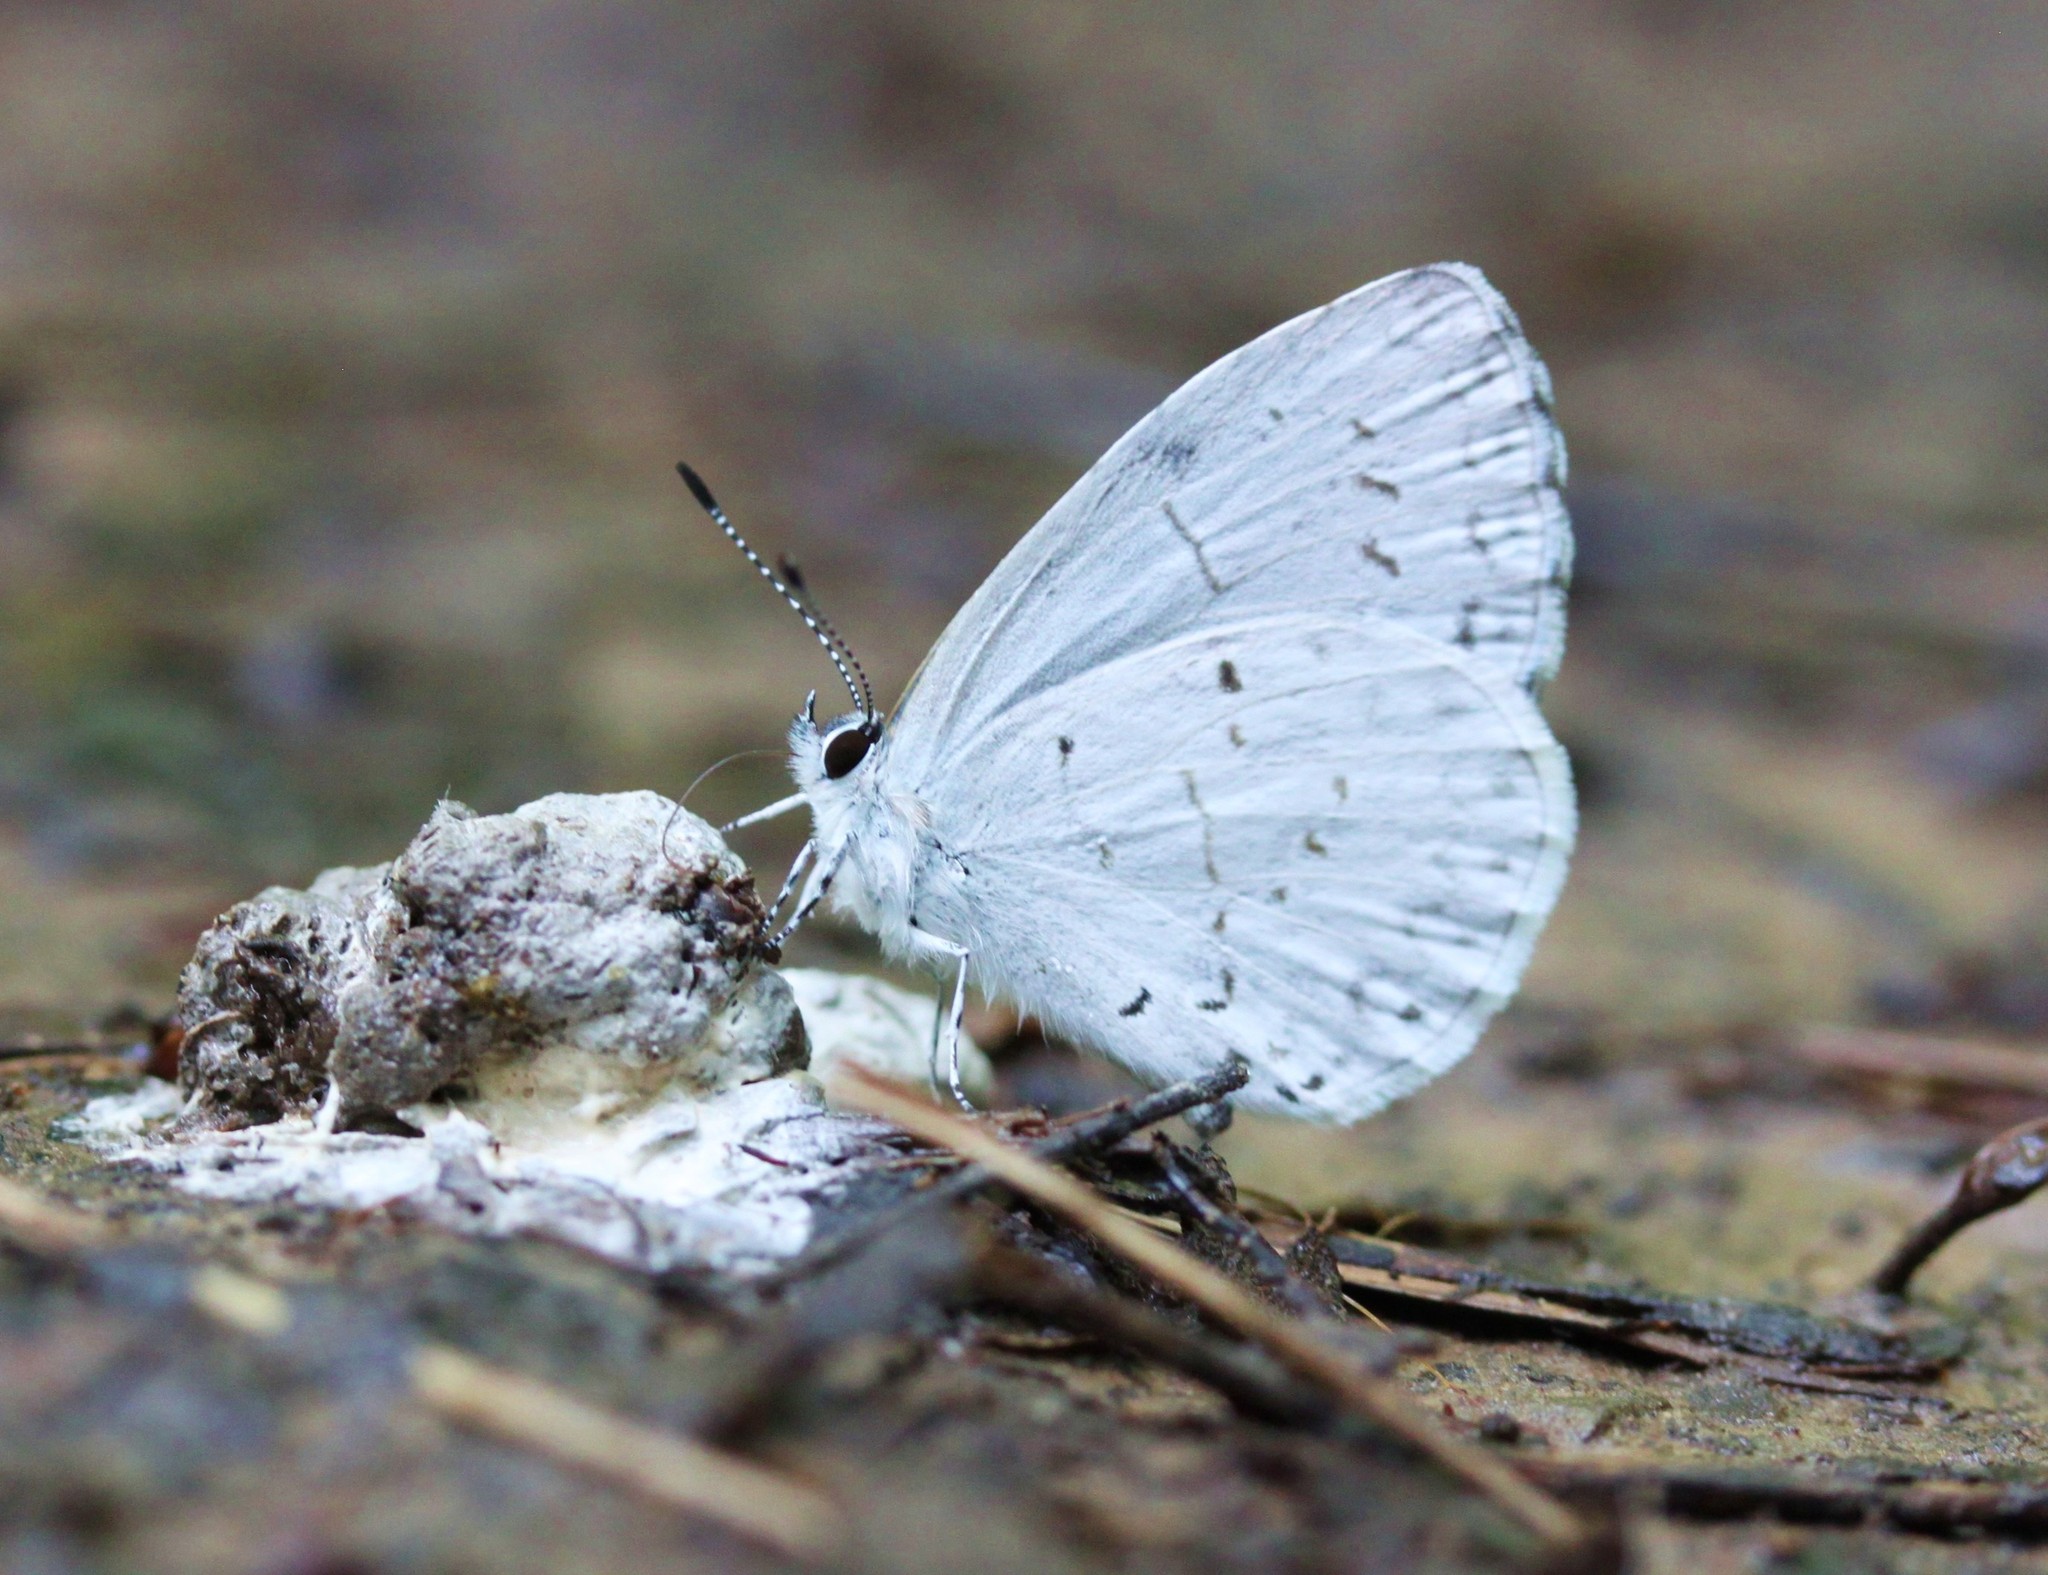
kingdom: Animalia
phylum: Arthropoda
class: Insecta
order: Lepidoptera
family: Lycaenidae
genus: Cyaniris
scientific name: Cyaniris neglecta
